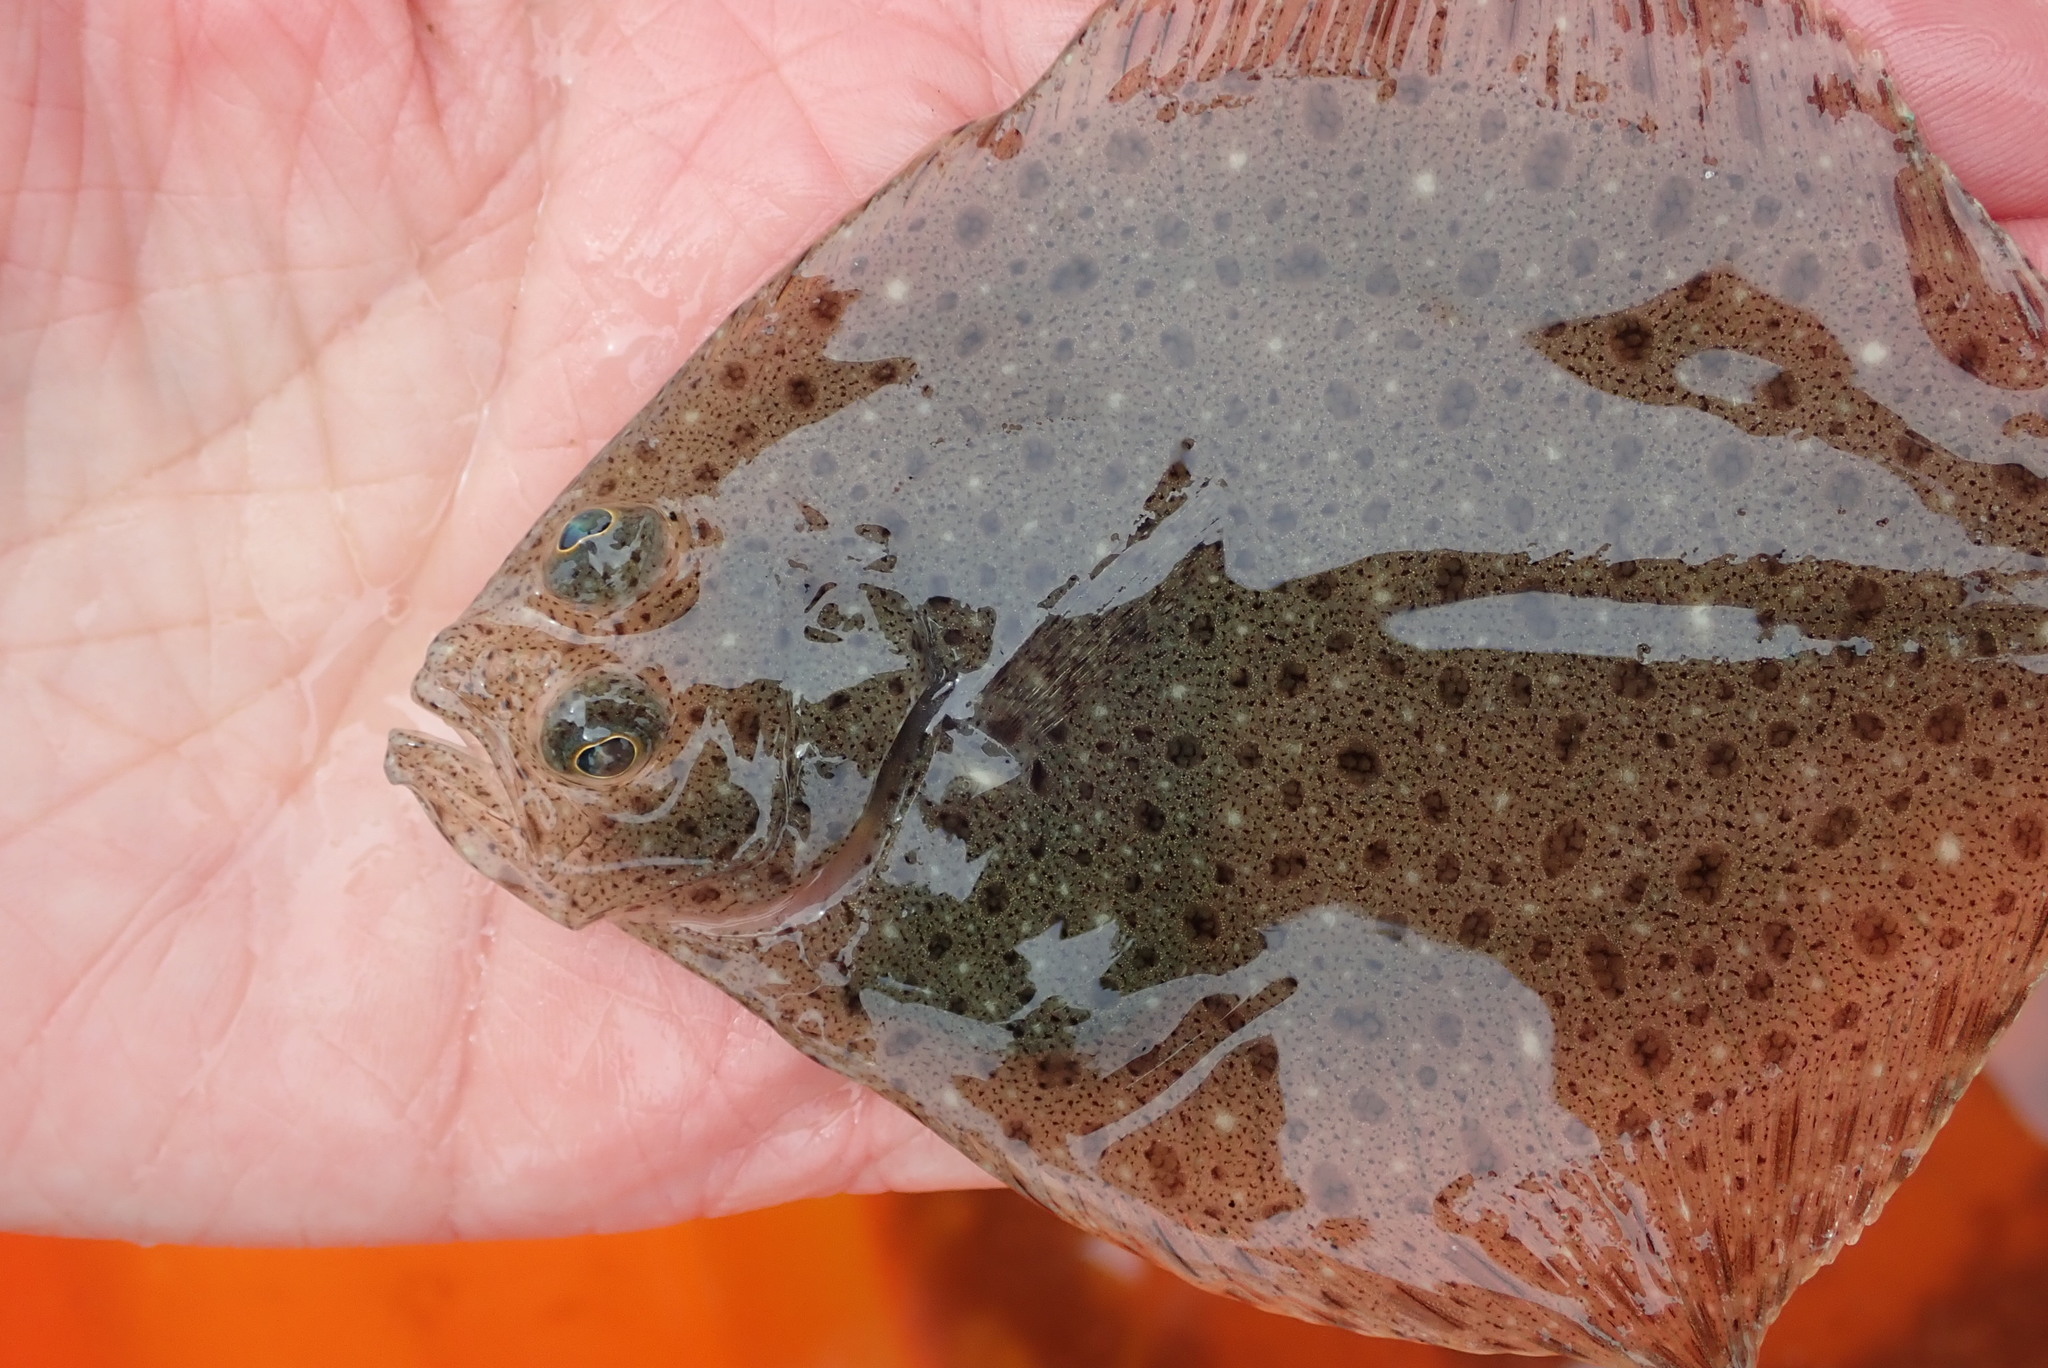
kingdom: Animalia
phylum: Chordata
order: Pleuronectiformes
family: Scophthalmidae
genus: Scophthalmus
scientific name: Scophthalmus aquosus
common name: Windowpane flounder
